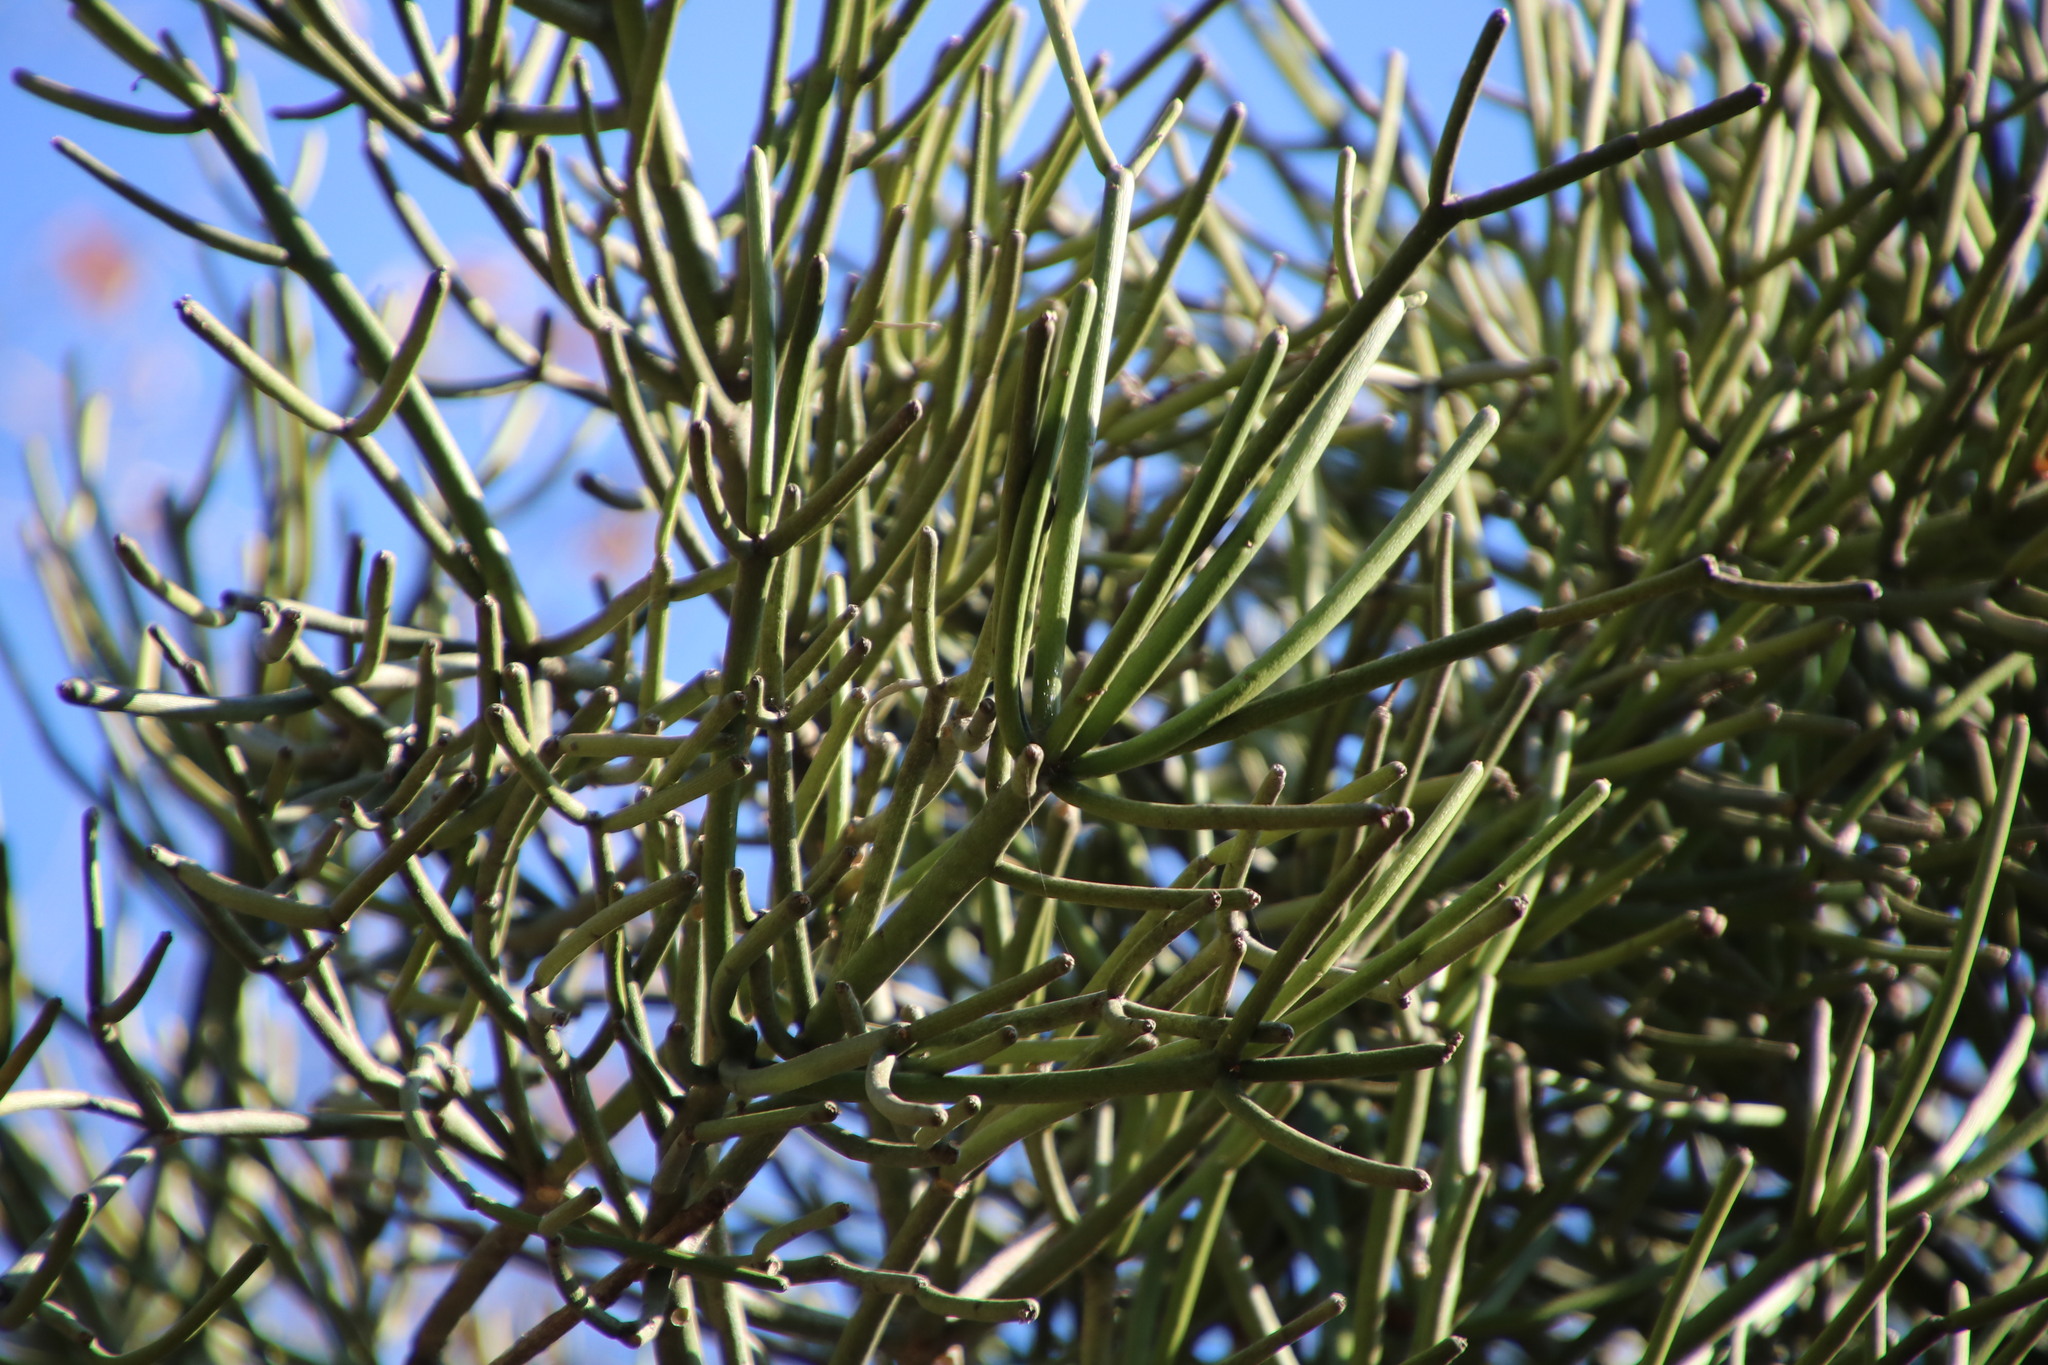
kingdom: Plantae
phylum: Tracheophyta
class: Magnoliopsida
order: Malpighiales
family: Euphorbiaceae
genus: Euphorbia
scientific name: Euphorbia tirucalli
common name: Indiantree spurge
